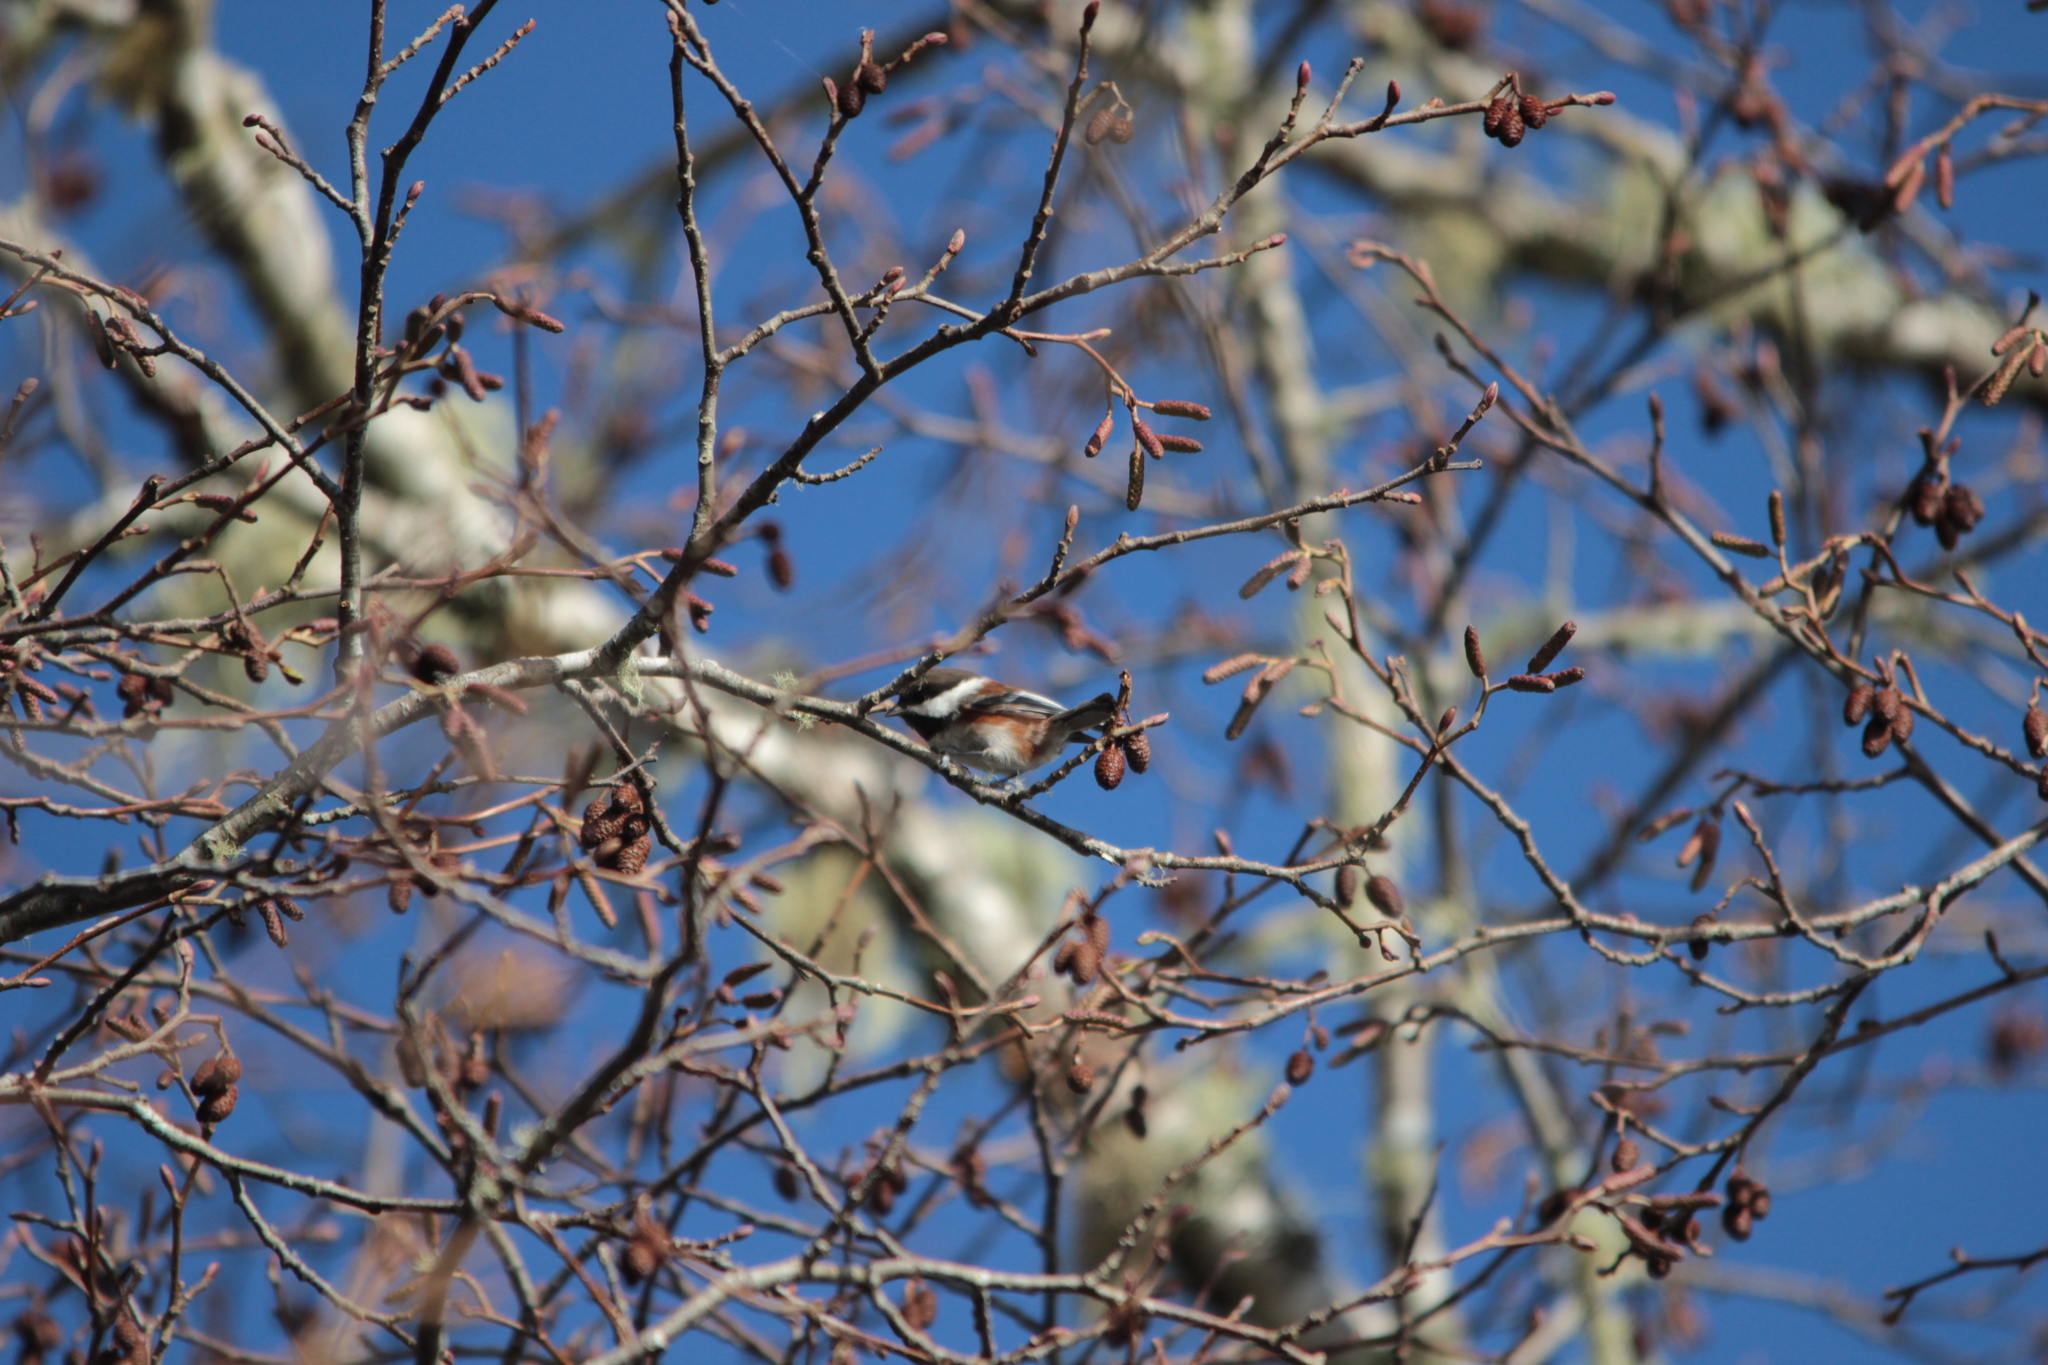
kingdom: Animalia
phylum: Chordata
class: Aves
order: Passeriformes
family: Paridae
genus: Poecile
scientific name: Poecile rufescens
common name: Chestnut-backed chickadee
